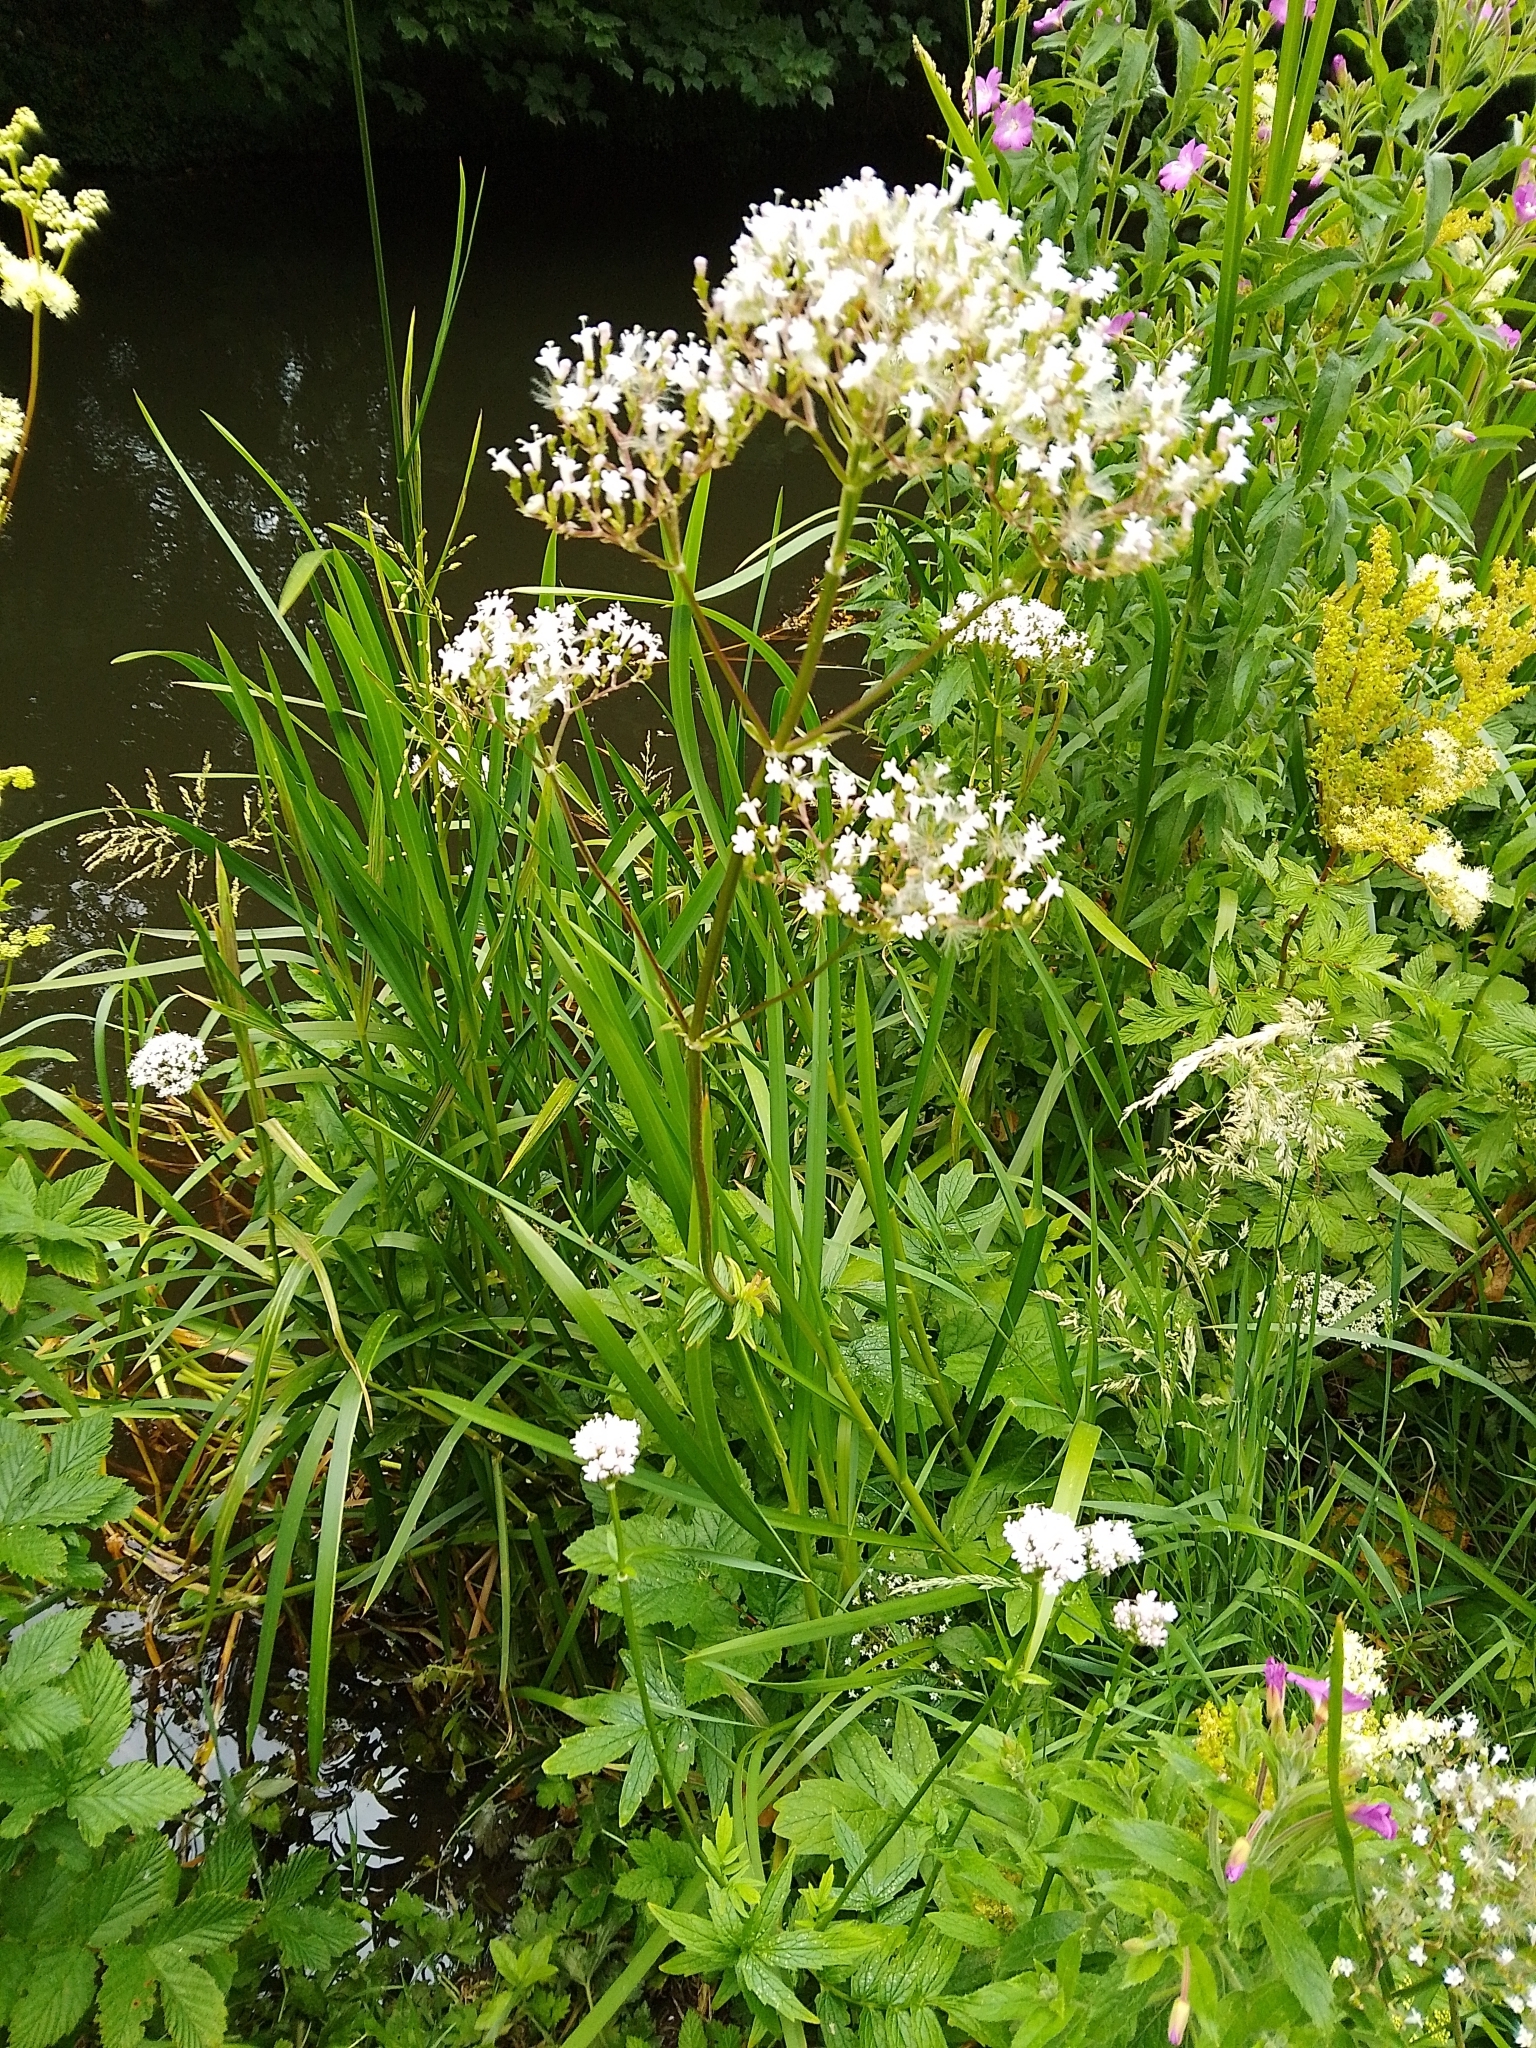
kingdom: Plantae
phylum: Tracheophyta
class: Magnoliopsida
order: Dipsacales
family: Caprifoliaceae
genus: Valeriana
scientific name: Valeriana officinalis
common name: Common valerian
